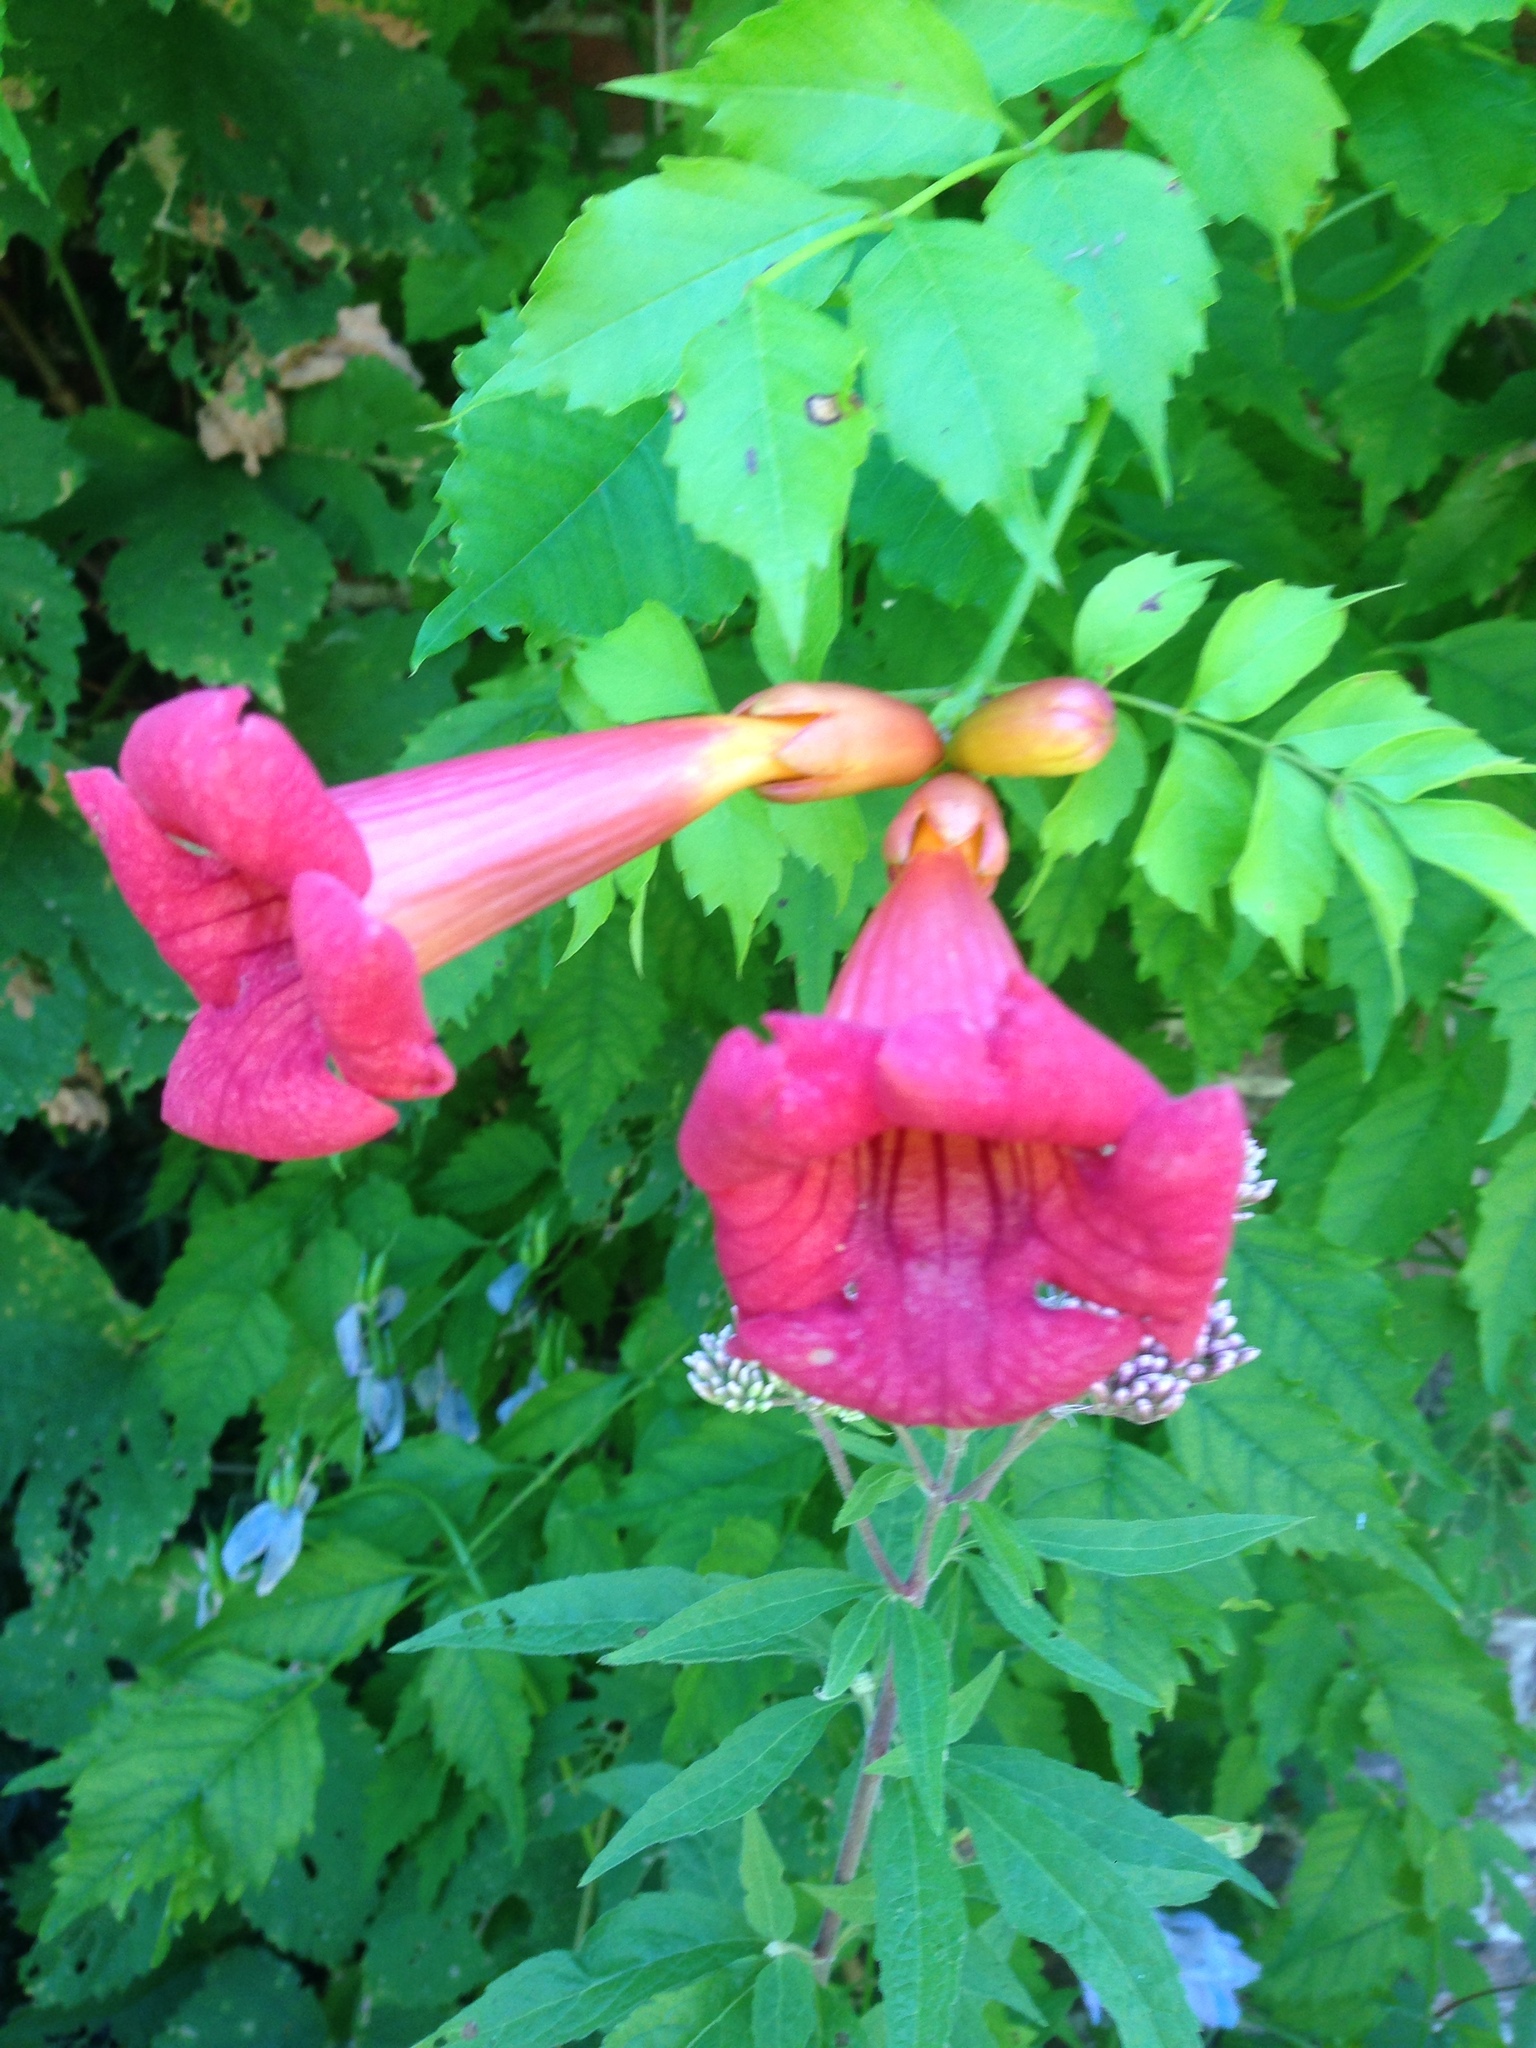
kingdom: Plantae
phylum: Tracheophyta
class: Magnoliopsida
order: Lamiales
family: Bignoniaceae
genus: Campsis
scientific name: Campsis radicans
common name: Trumpet-creeper
